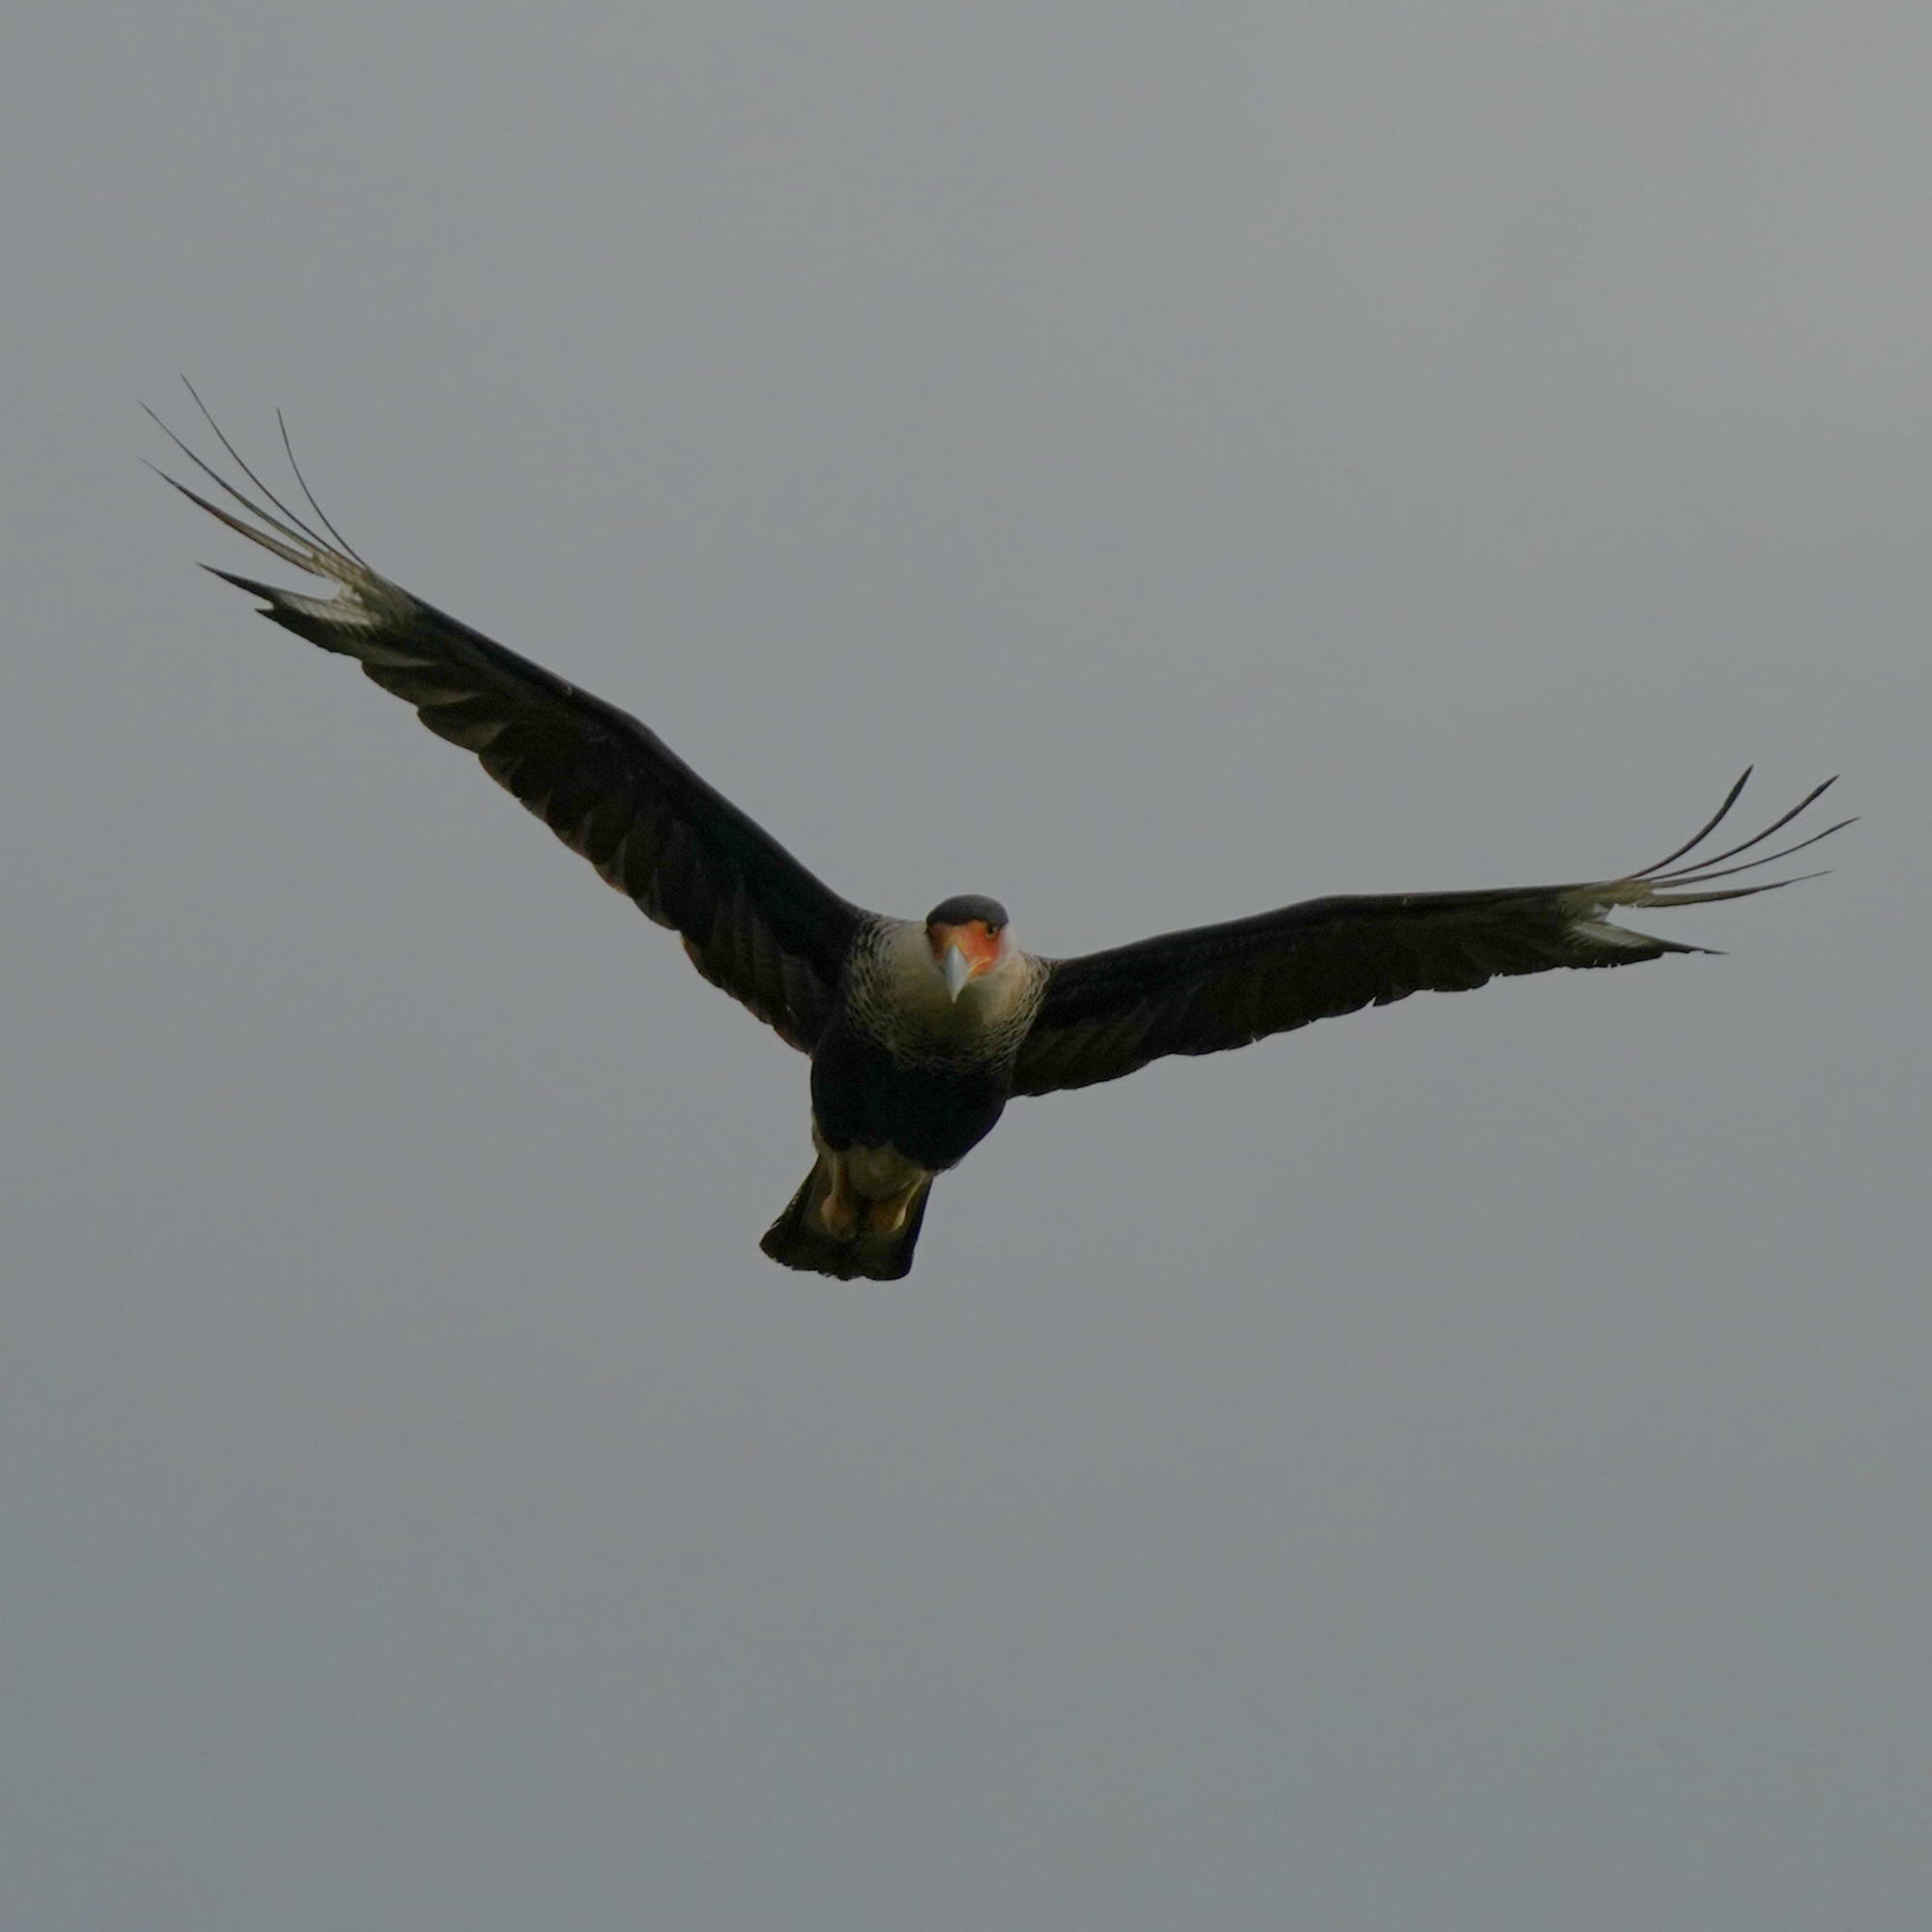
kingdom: Animalia
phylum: Chordata
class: Aves
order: Falconiformes
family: Falconidae
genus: Caracara
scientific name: Caracara plancus
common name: Southern caracara
